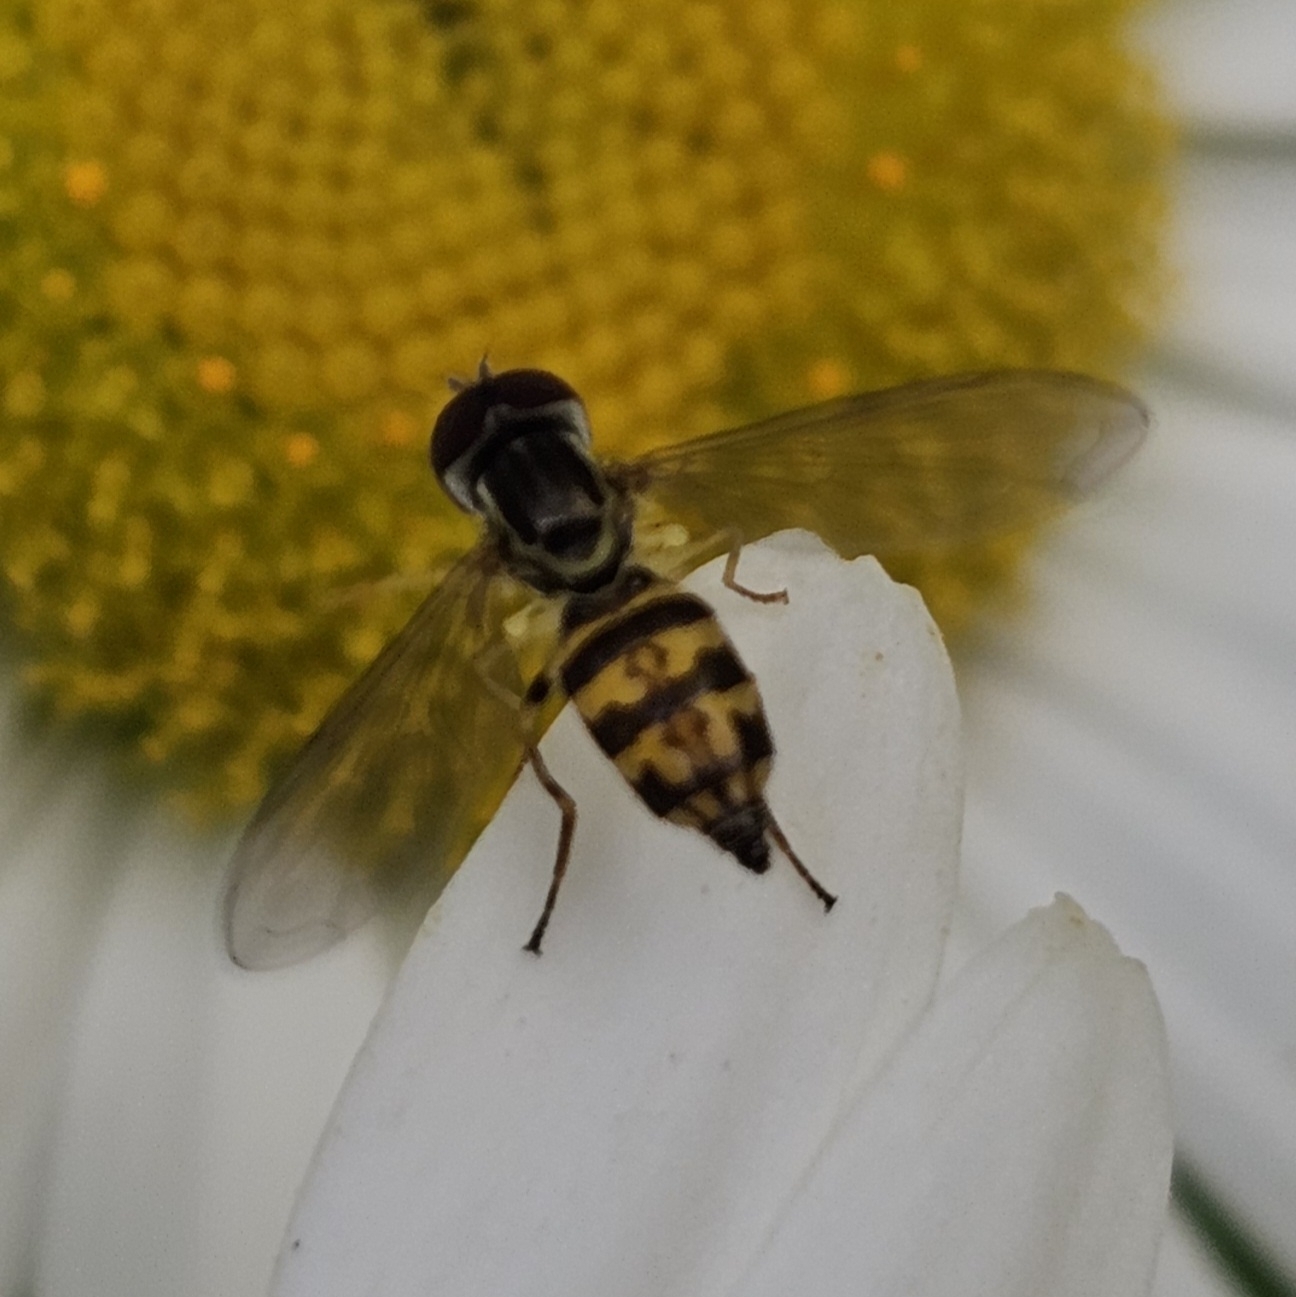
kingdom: Animalia
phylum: Arthropoda
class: Insecta
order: Diptera
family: Syrphidae
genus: Toxomerus
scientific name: Toxomerus geminatus
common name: Eastern calligrapher
